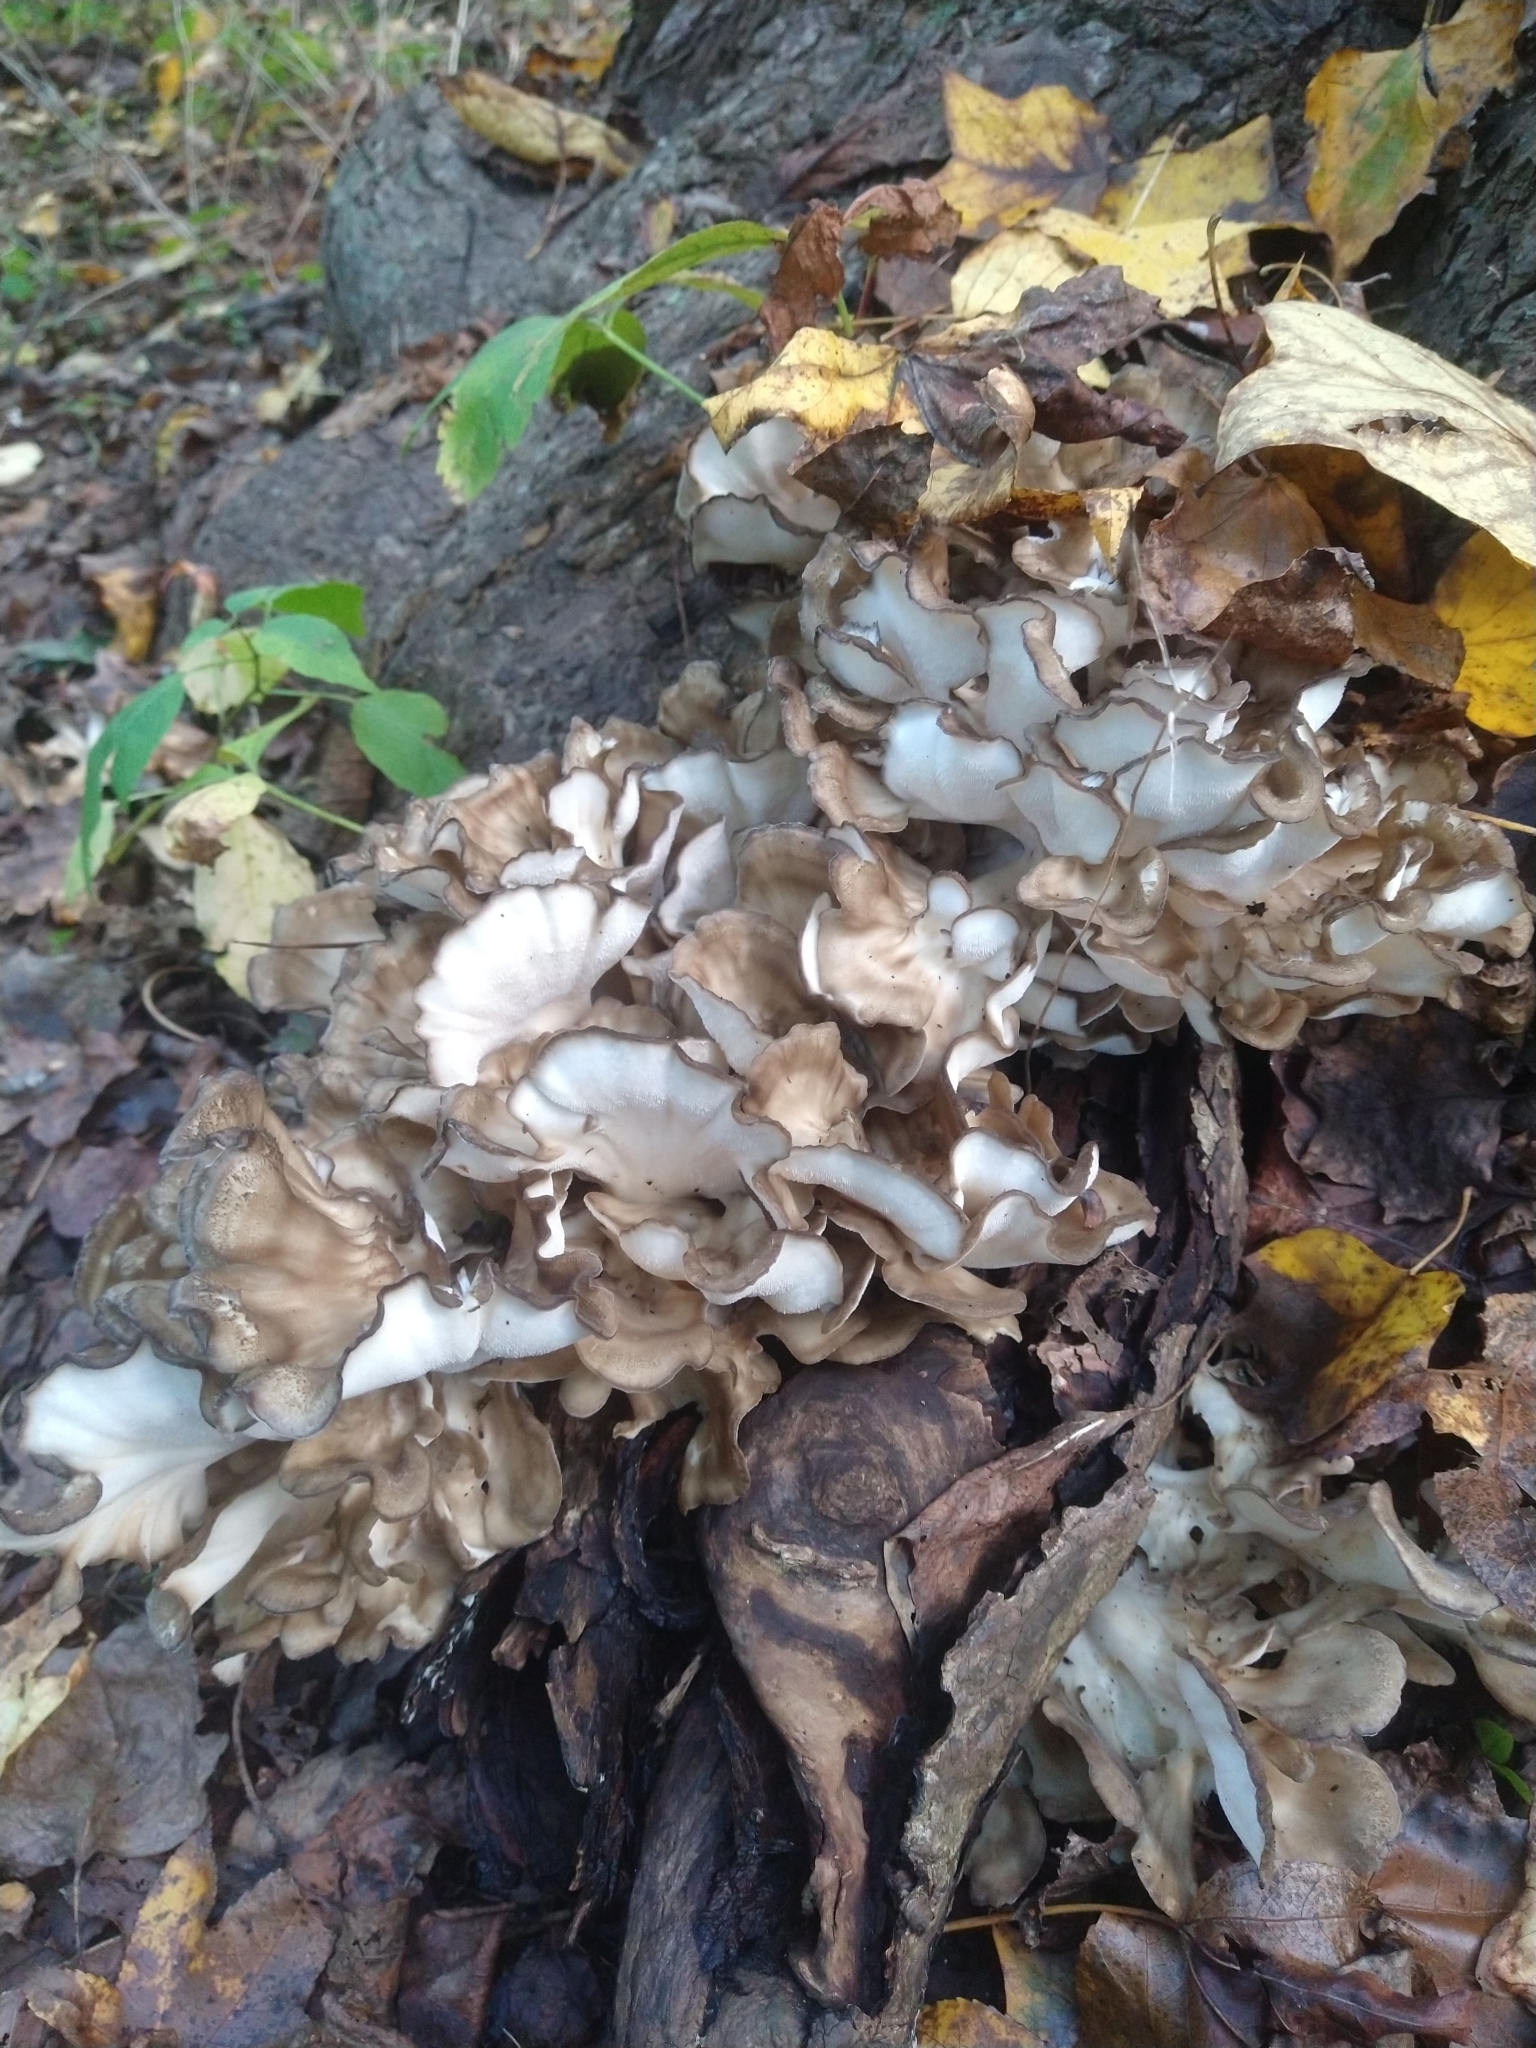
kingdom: Fungi
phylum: Basidiomycota
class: Agaricomycetes
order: Polyporales
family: Grifolaceae
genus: Grifola
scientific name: Grifola frondosa
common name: Hen of the woods
